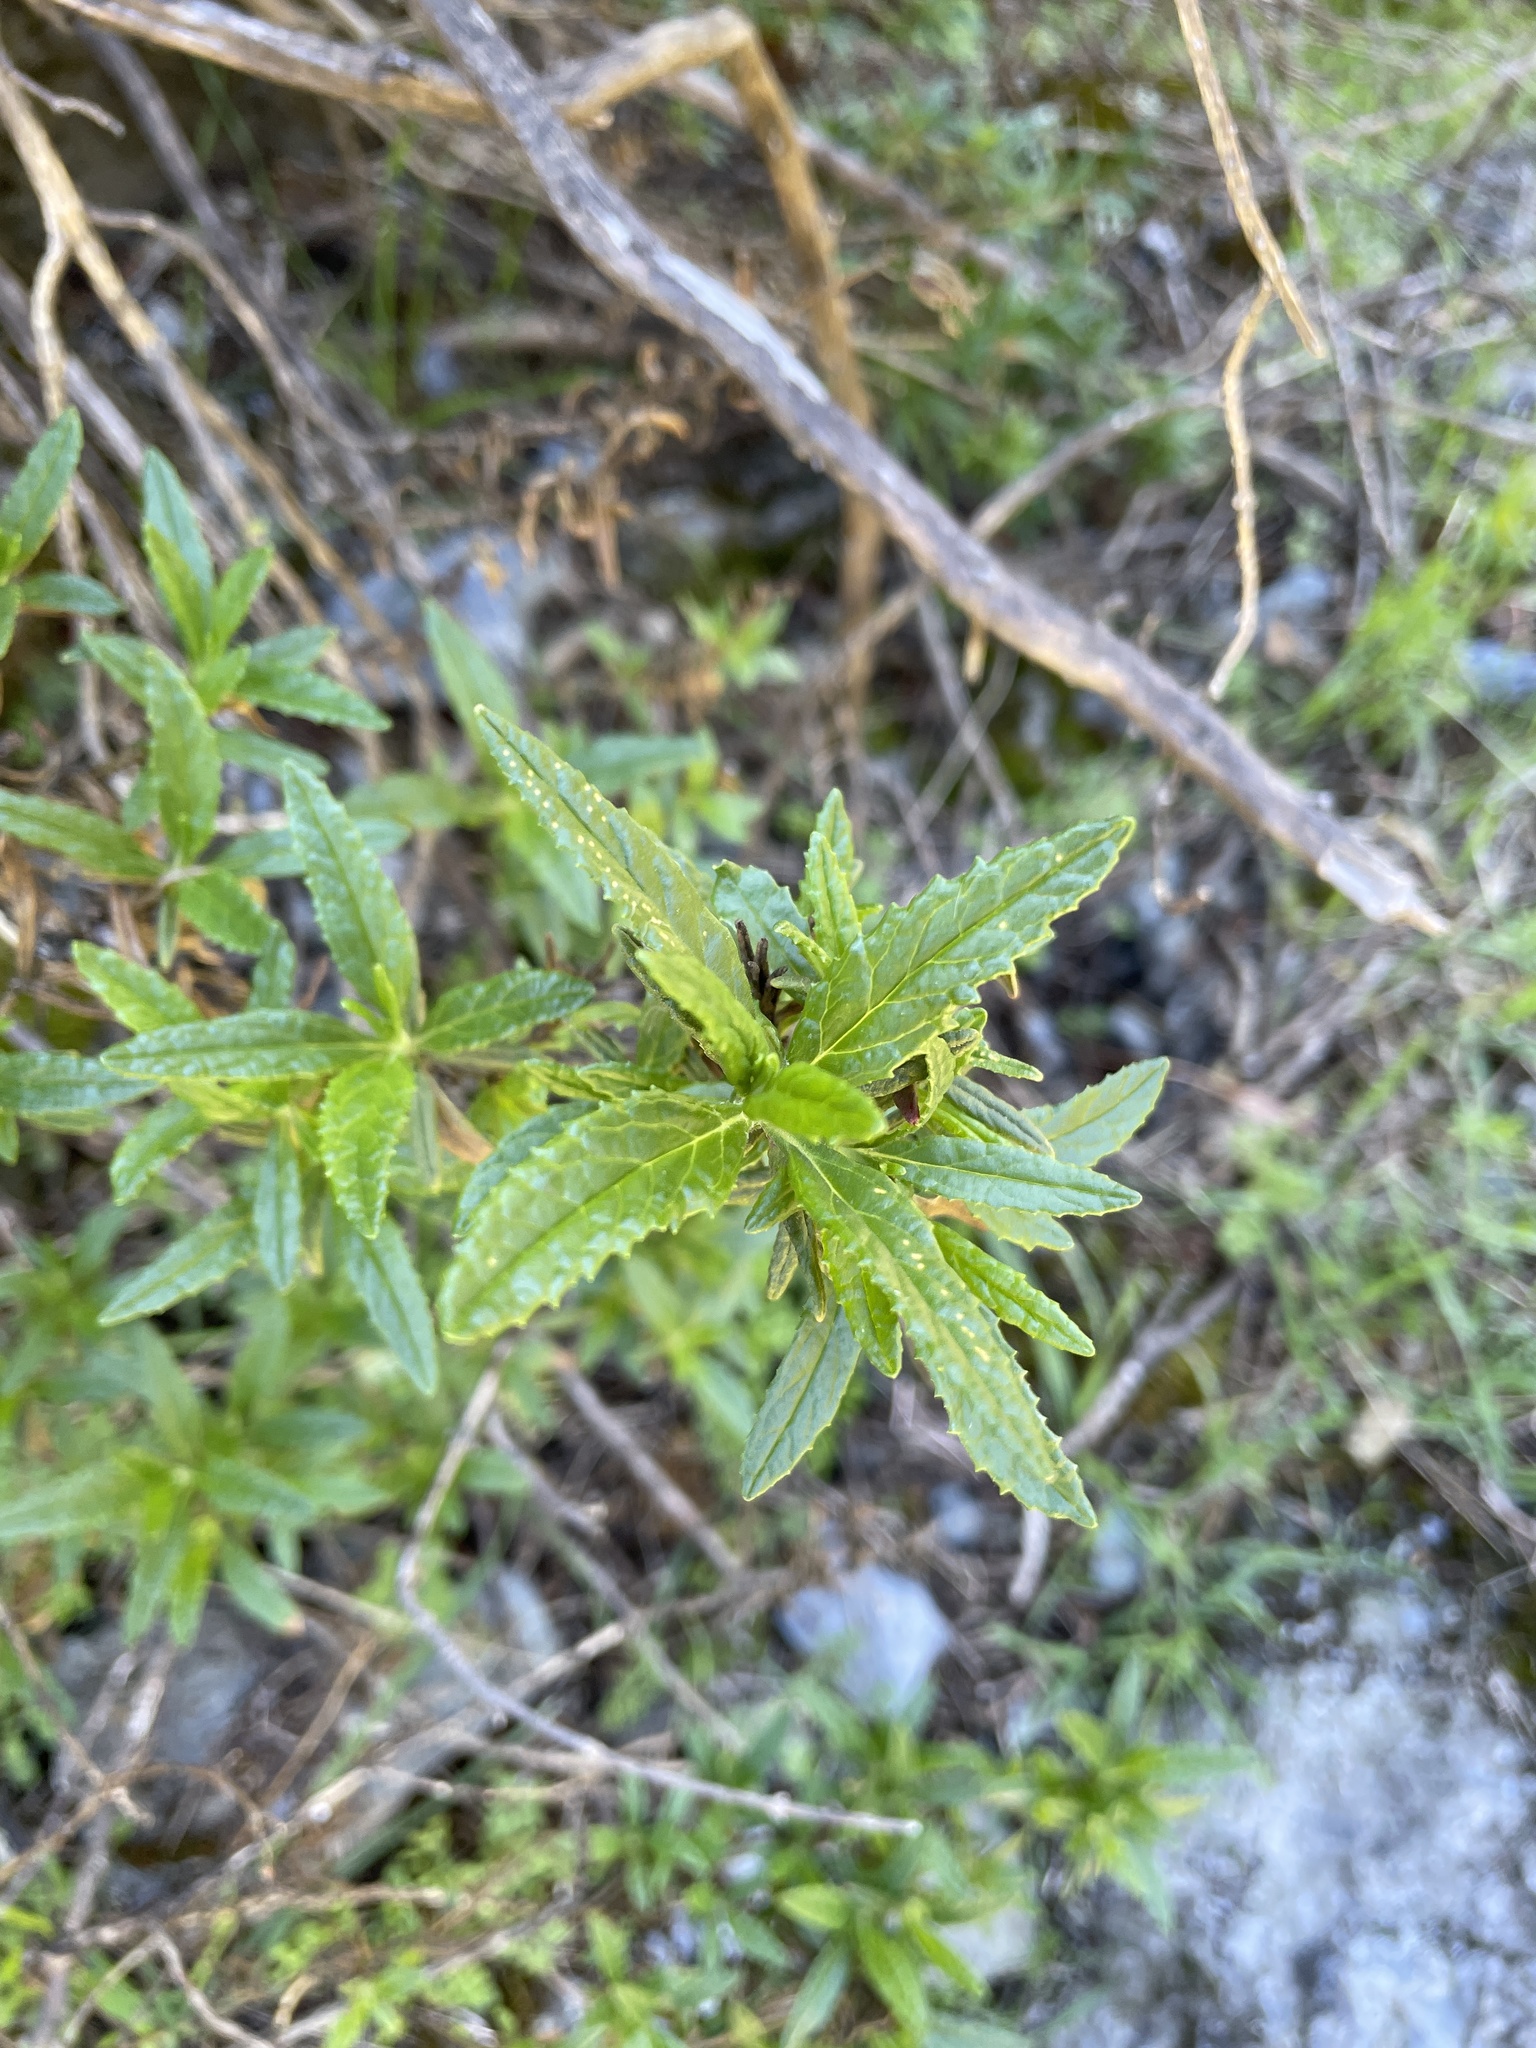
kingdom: Plantae
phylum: Tracheophyta
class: Magnoliopsida
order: Lamiales
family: Phrymaceae
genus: Diplacus
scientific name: Diplacus aurantiacus
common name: Bush monkey-flower
